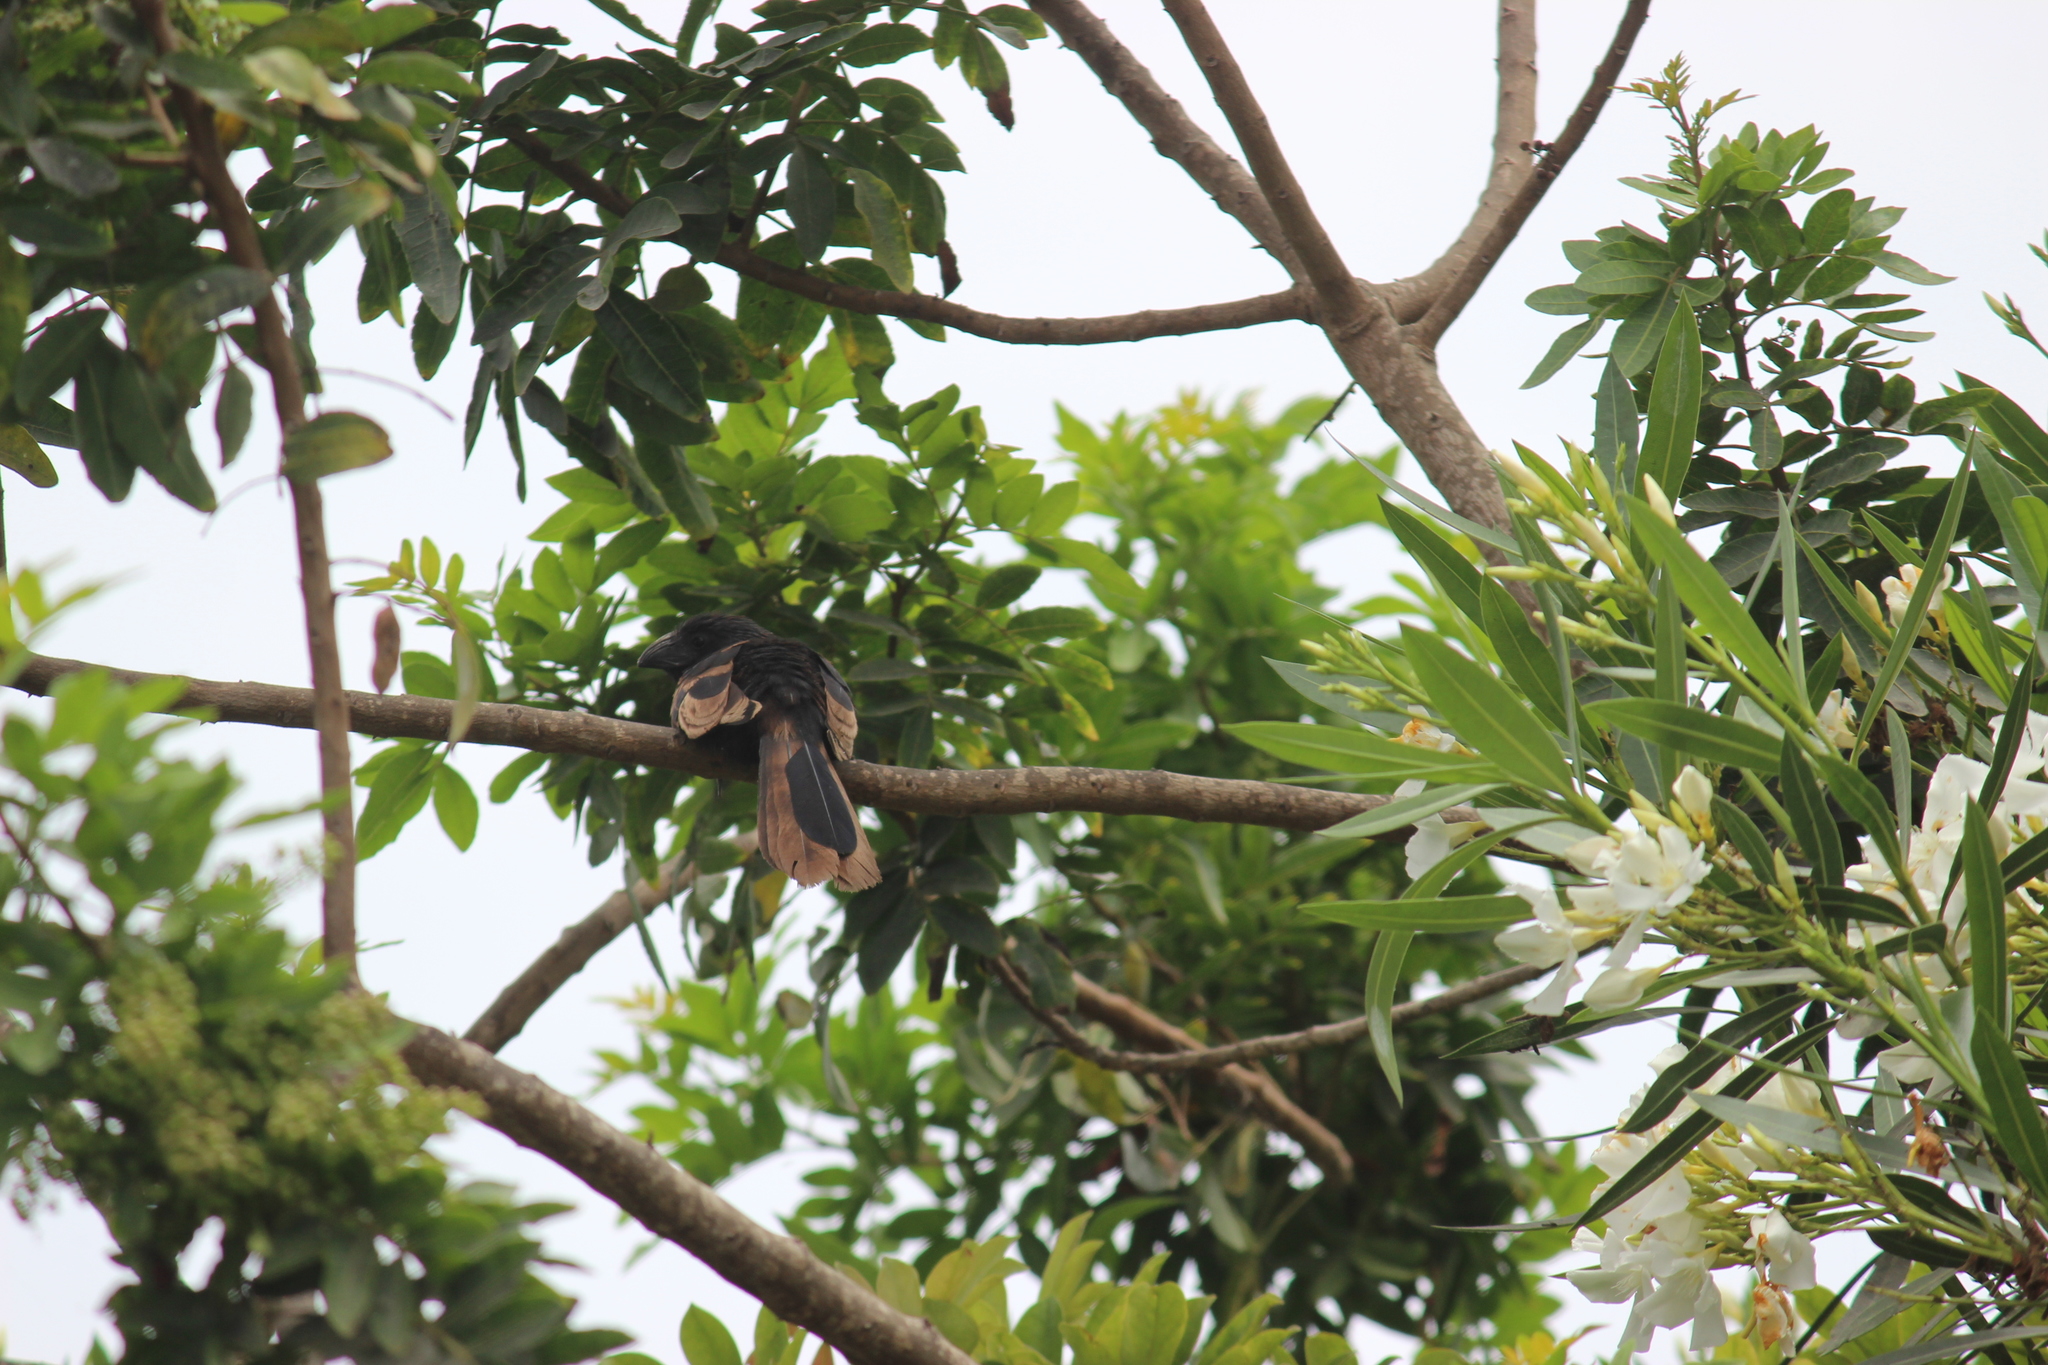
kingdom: Animalia
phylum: Chordata
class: Aves
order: Cuculiformes
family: Cuculidae
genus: Crotophaga
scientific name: Crotophaga sulcirostris
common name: Groove-billed ani
